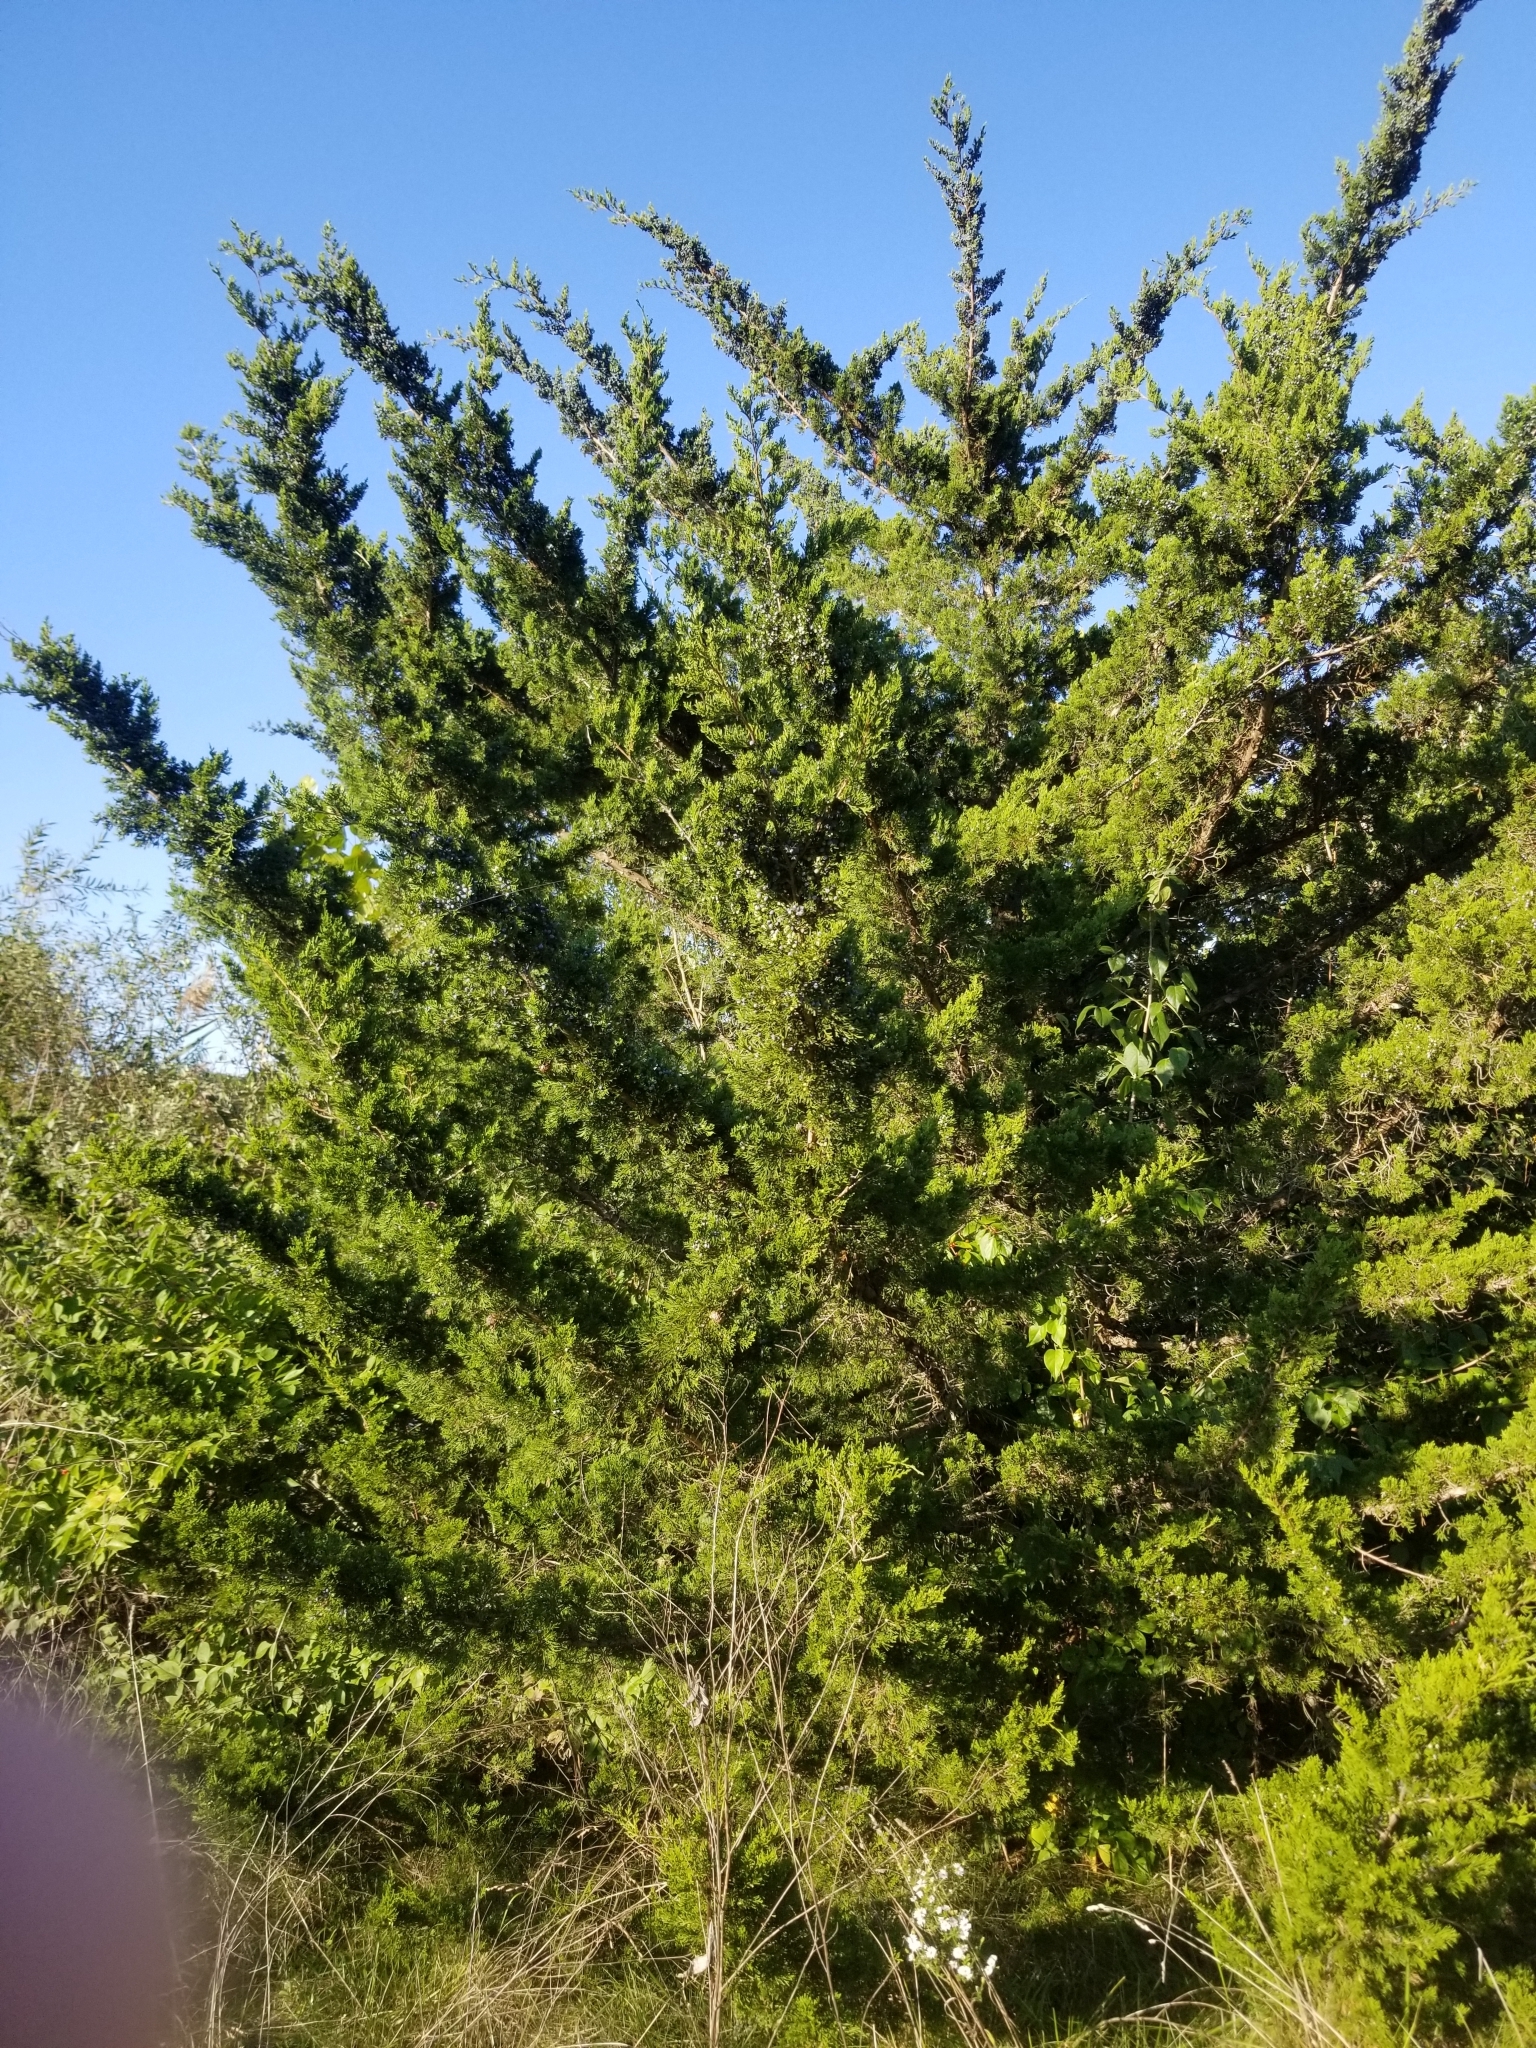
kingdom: Plantae
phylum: Tracheophyta
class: Pinopsida
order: Pinales
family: Cupressaceae
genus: Juniperus
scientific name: Juniperus virginiana
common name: Red juniper
